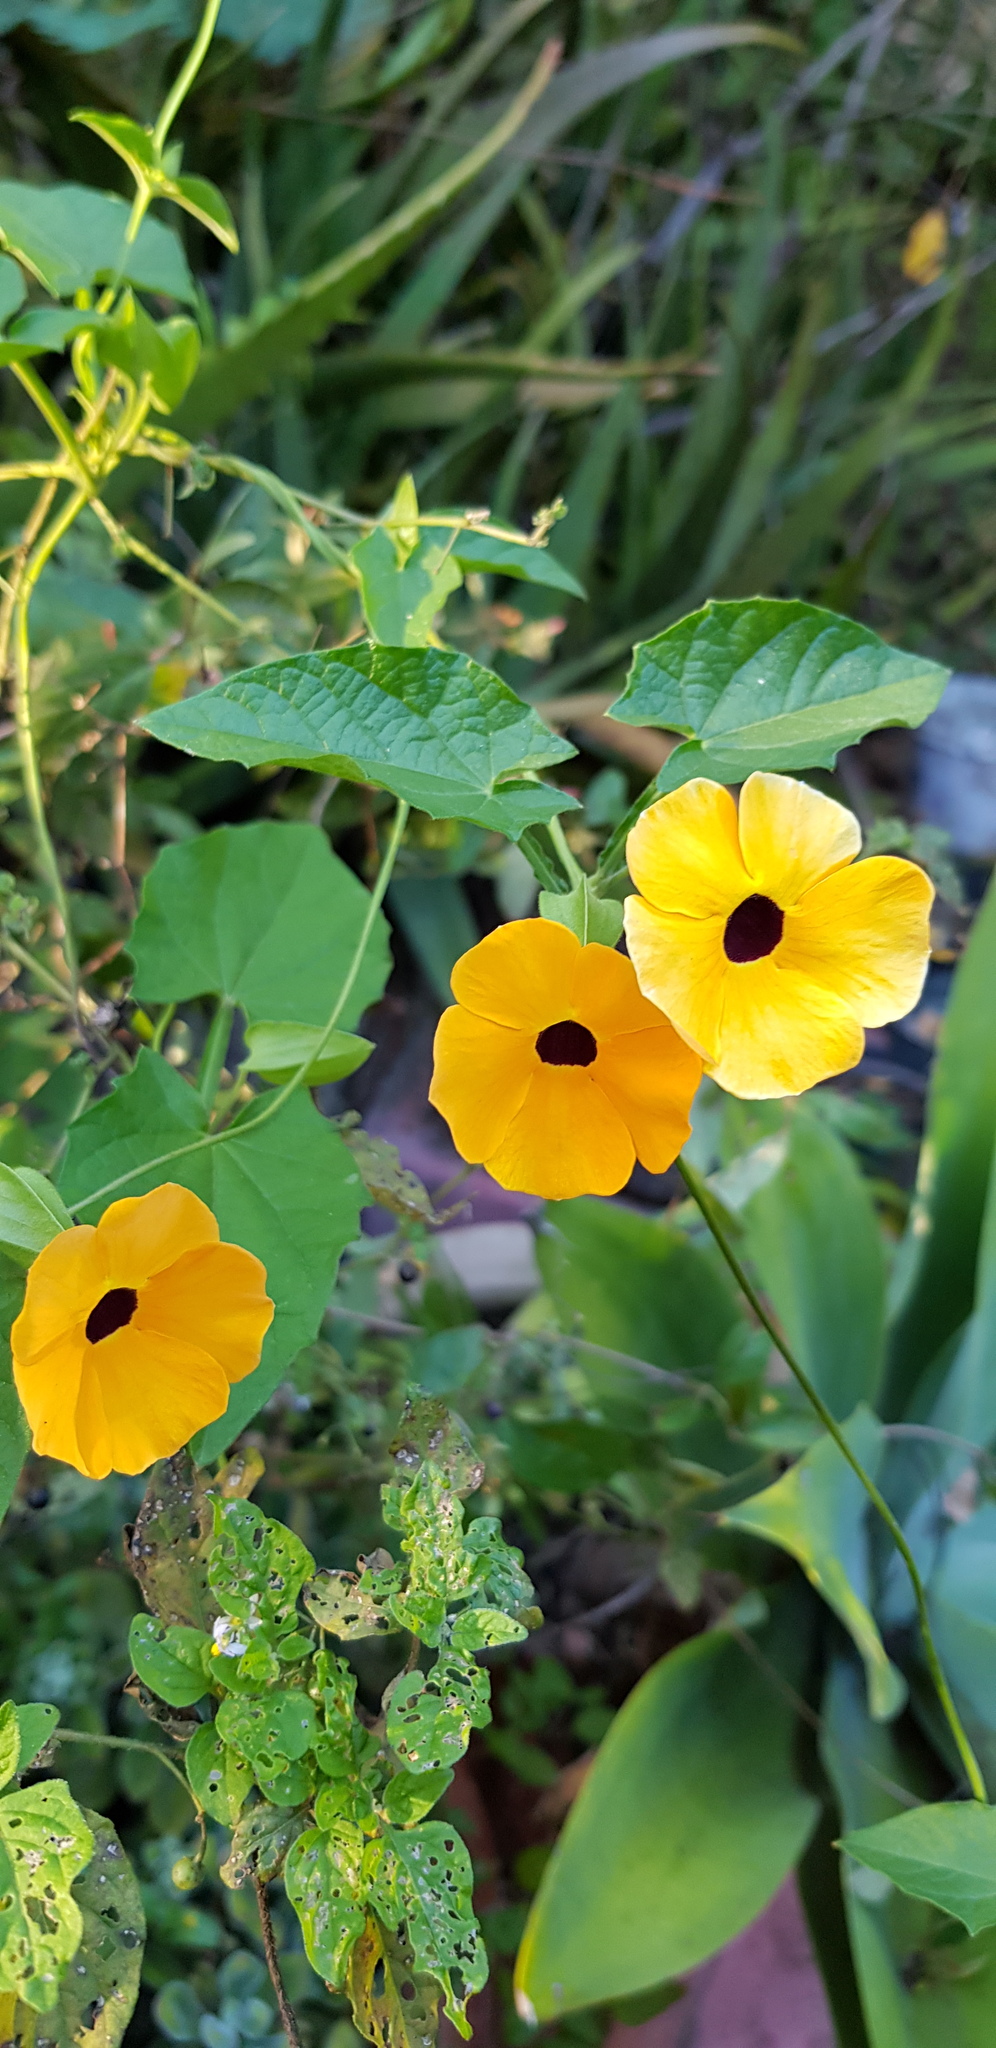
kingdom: Plantae
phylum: Tracheophyta
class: Magnoliopsida
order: Lamiales
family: Acanthaceae
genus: Thunbergia
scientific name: Thunbergia alata
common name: Blackeyed susan vine
